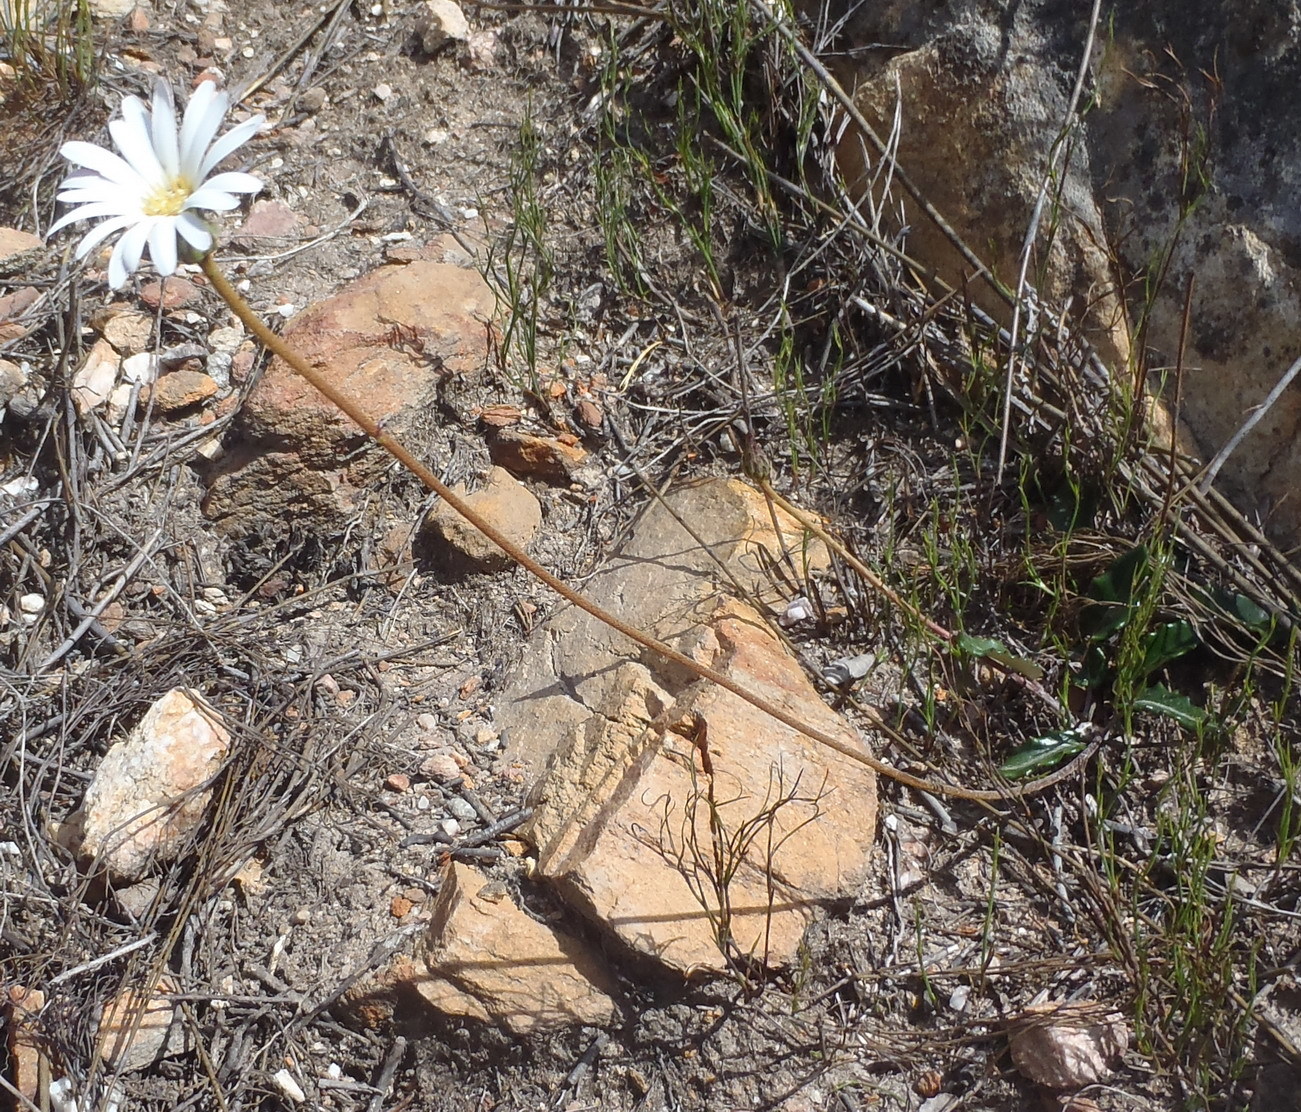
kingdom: Plantae
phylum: Tracheophyta
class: Magnoliopsida
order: Asterales
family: Asteraceae
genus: Gerbera
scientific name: Gerbera serrata
